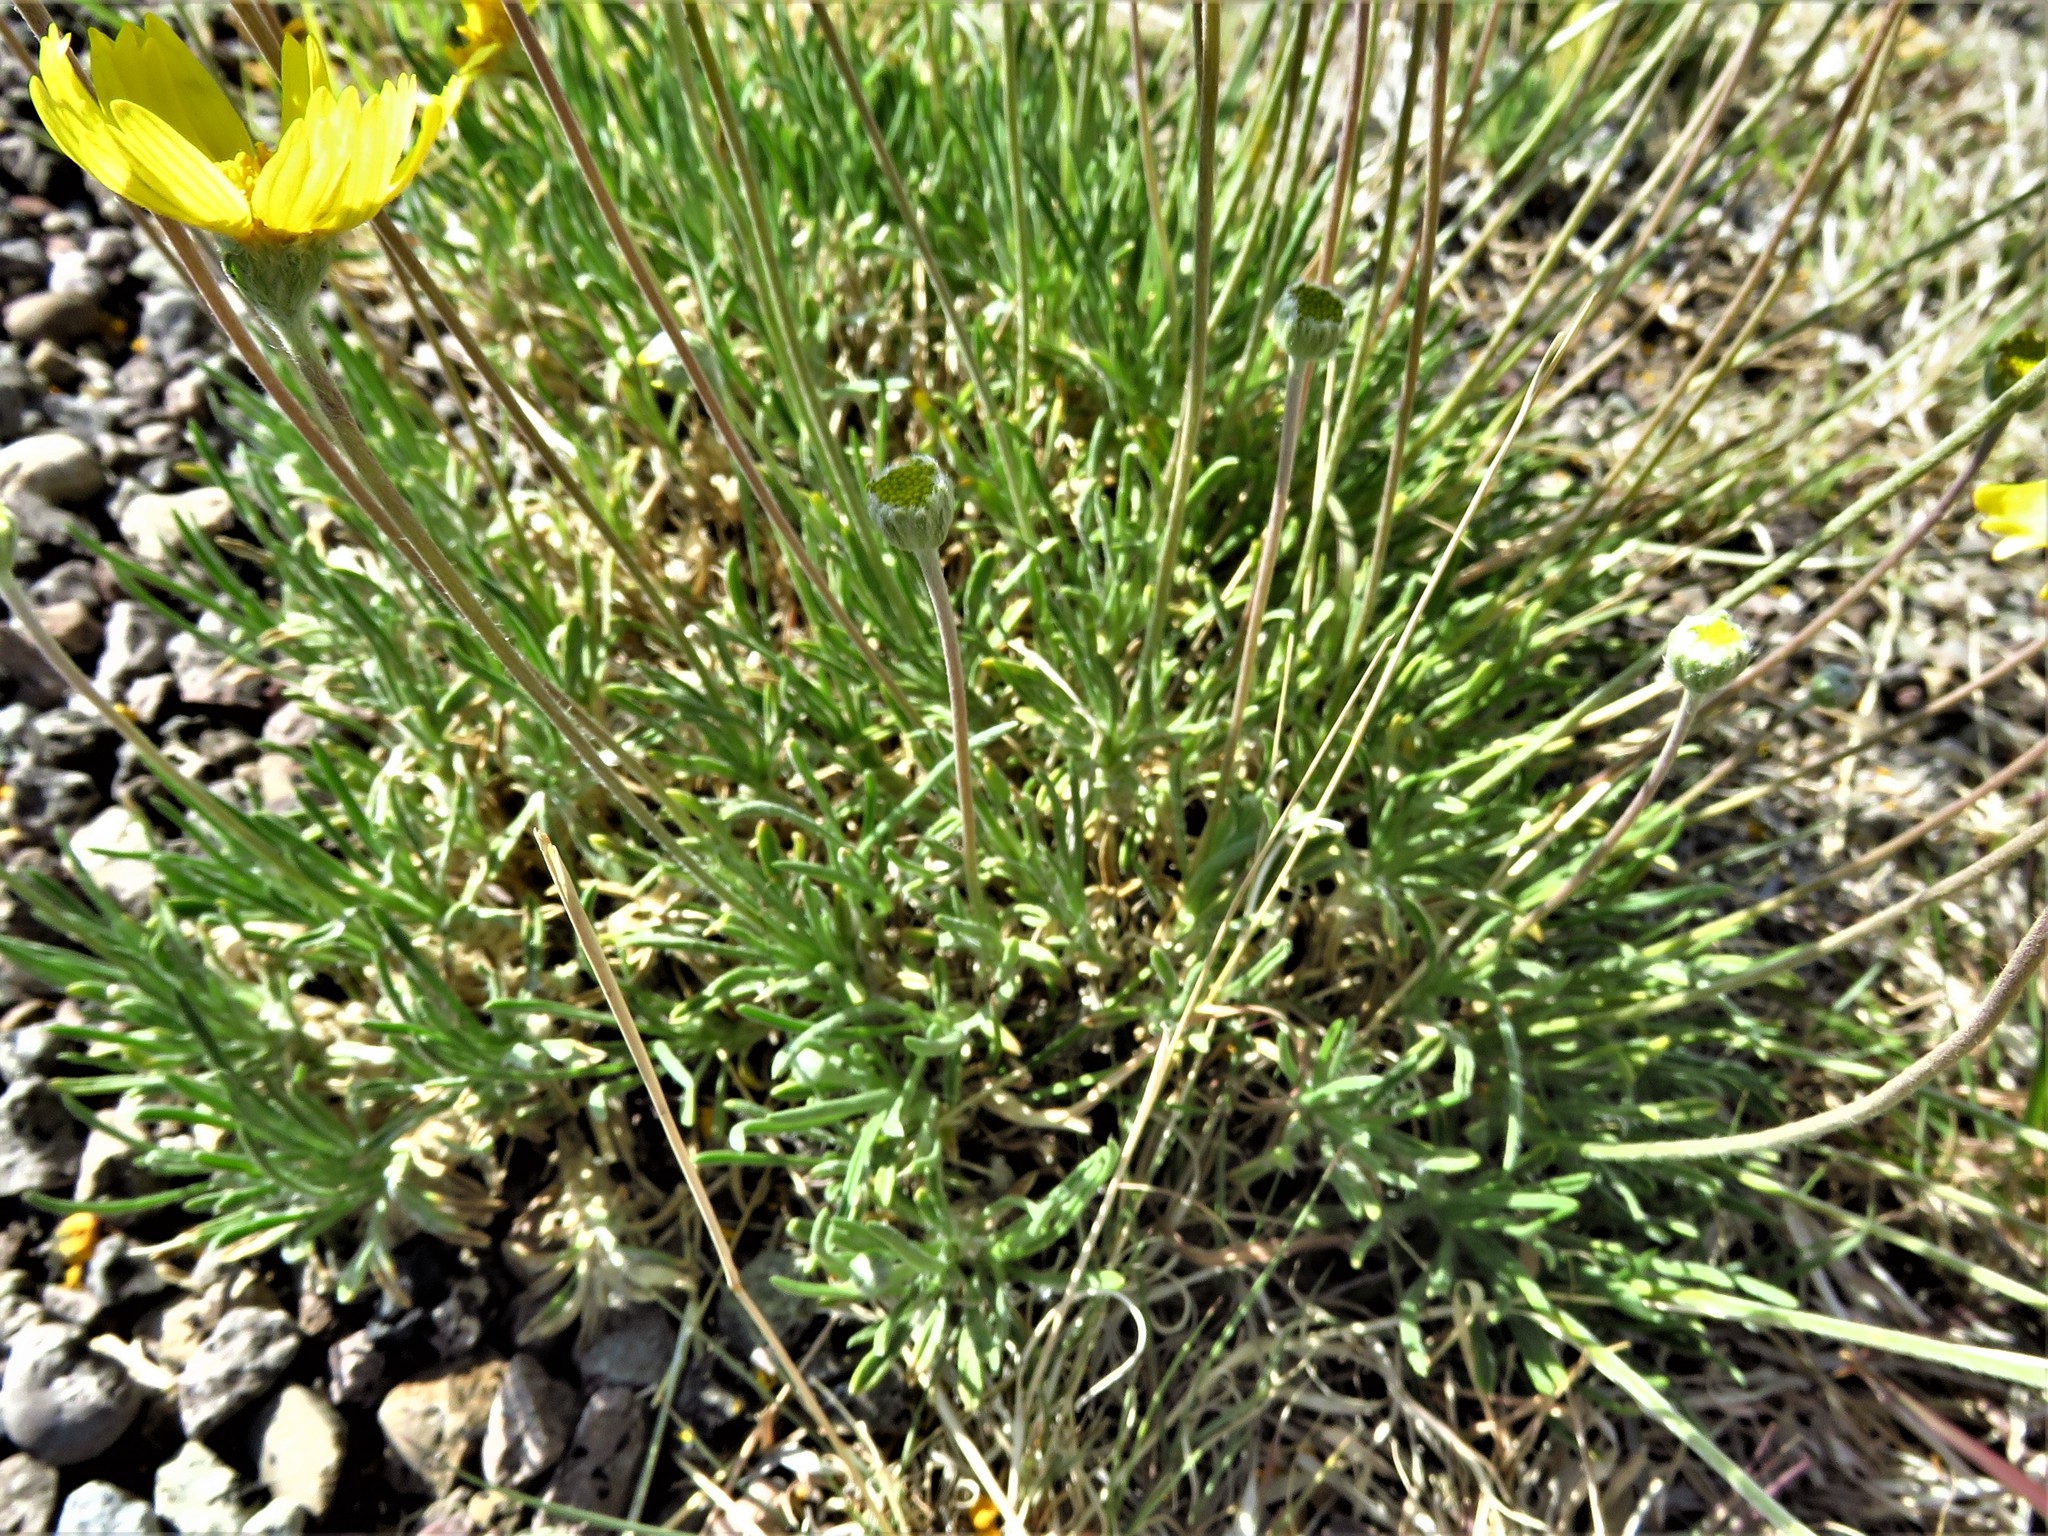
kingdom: Plantae
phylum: Tracheophyta
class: Magnoliopsida
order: Asterales
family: Asteraceae
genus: Tetraneuris
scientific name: Tetraneuris scaposa
